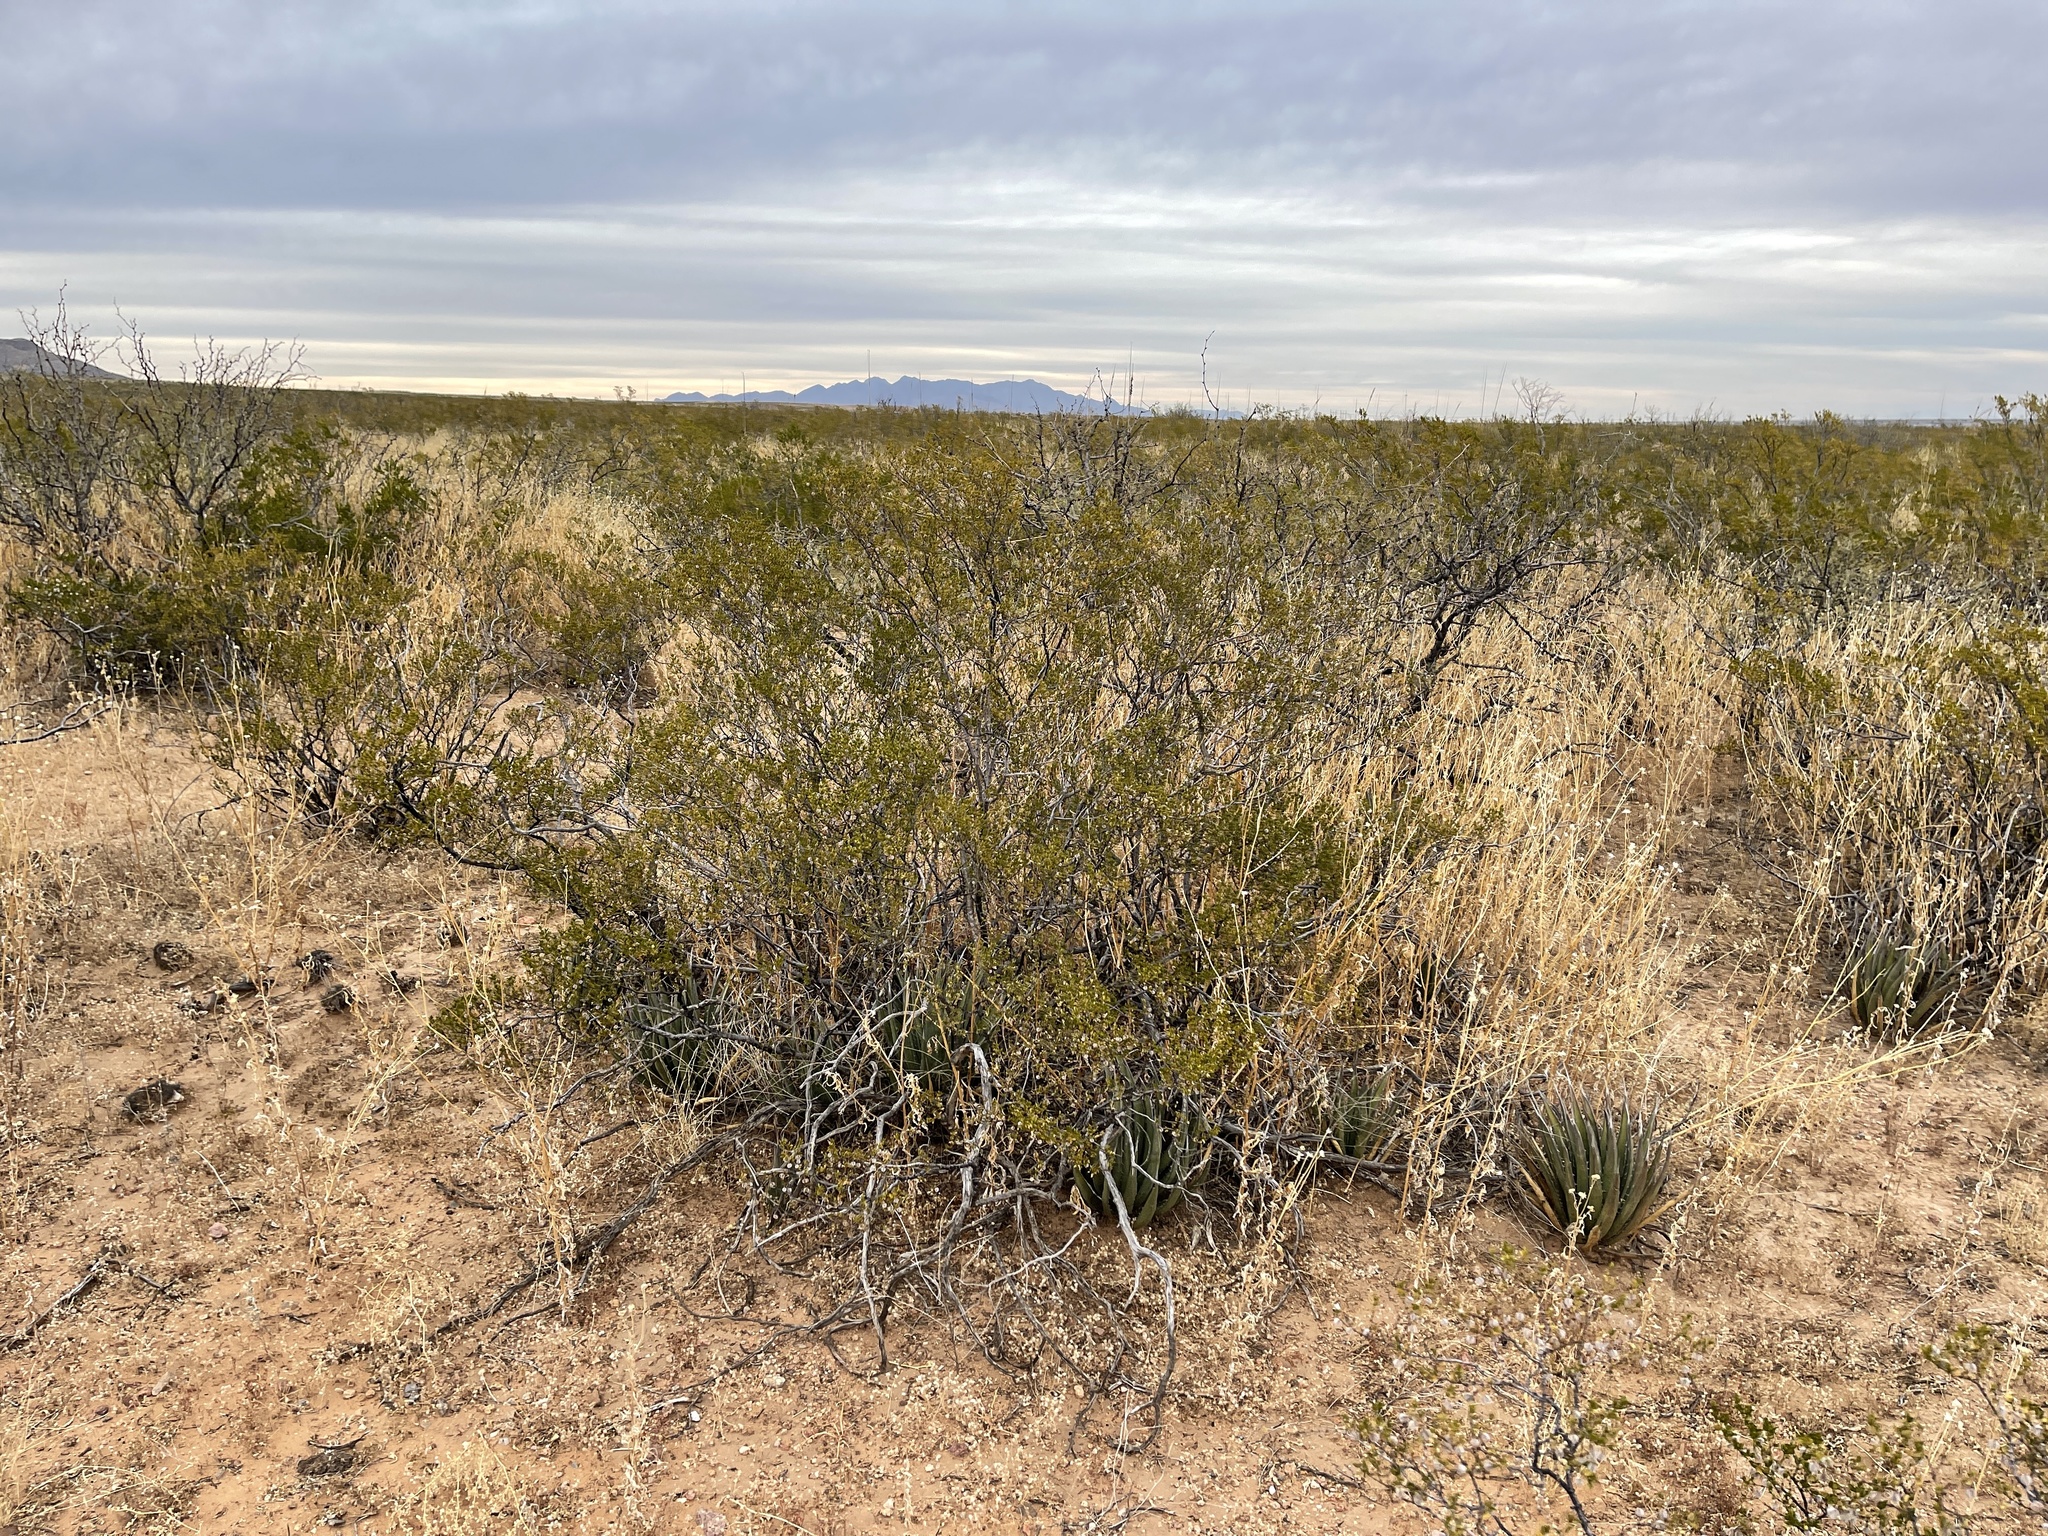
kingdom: Plantae
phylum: Tracheophyta
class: Magnoliopsida
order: Zygophyllales
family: Zygophyllaceae
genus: Larrea
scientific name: Larrea tridentata
